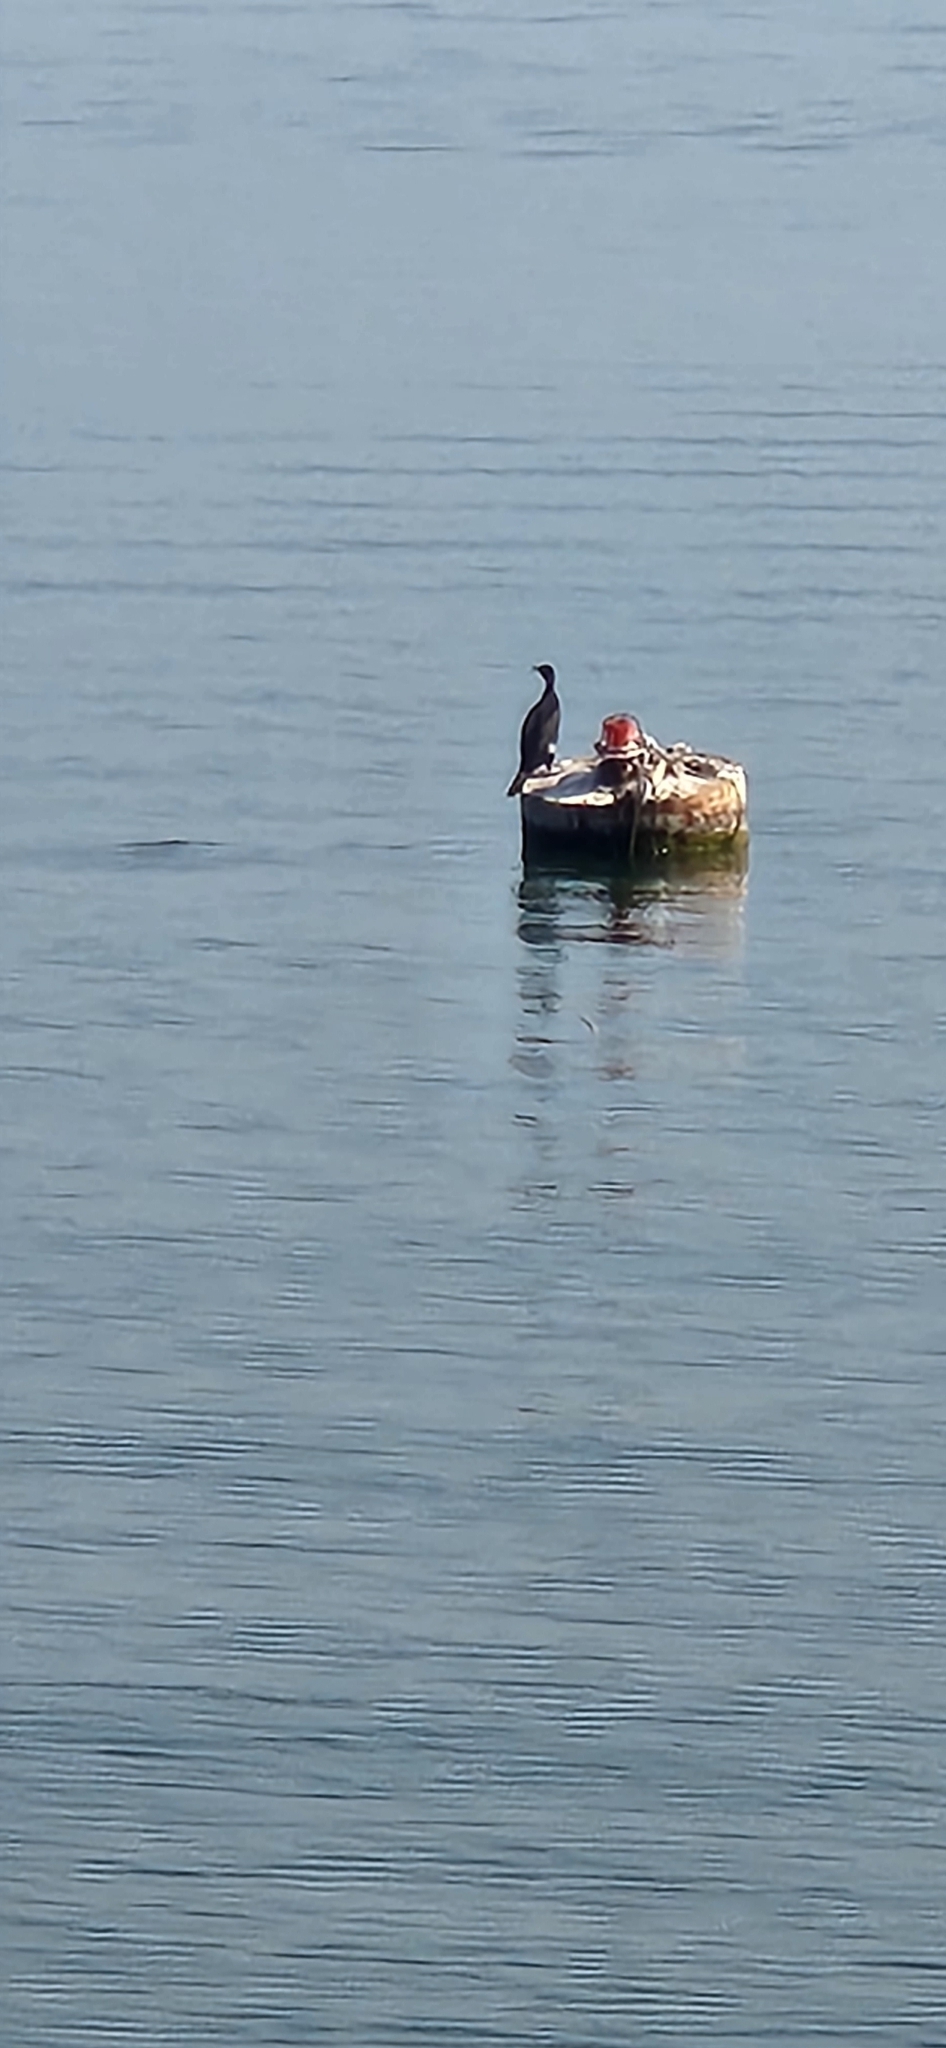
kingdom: Animalia
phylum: Chordata
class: Aves
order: Suliformes
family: Phalacrocoracidae
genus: Phalacrocorax
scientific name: Phalacrocorax carbo
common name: Great cormorant
